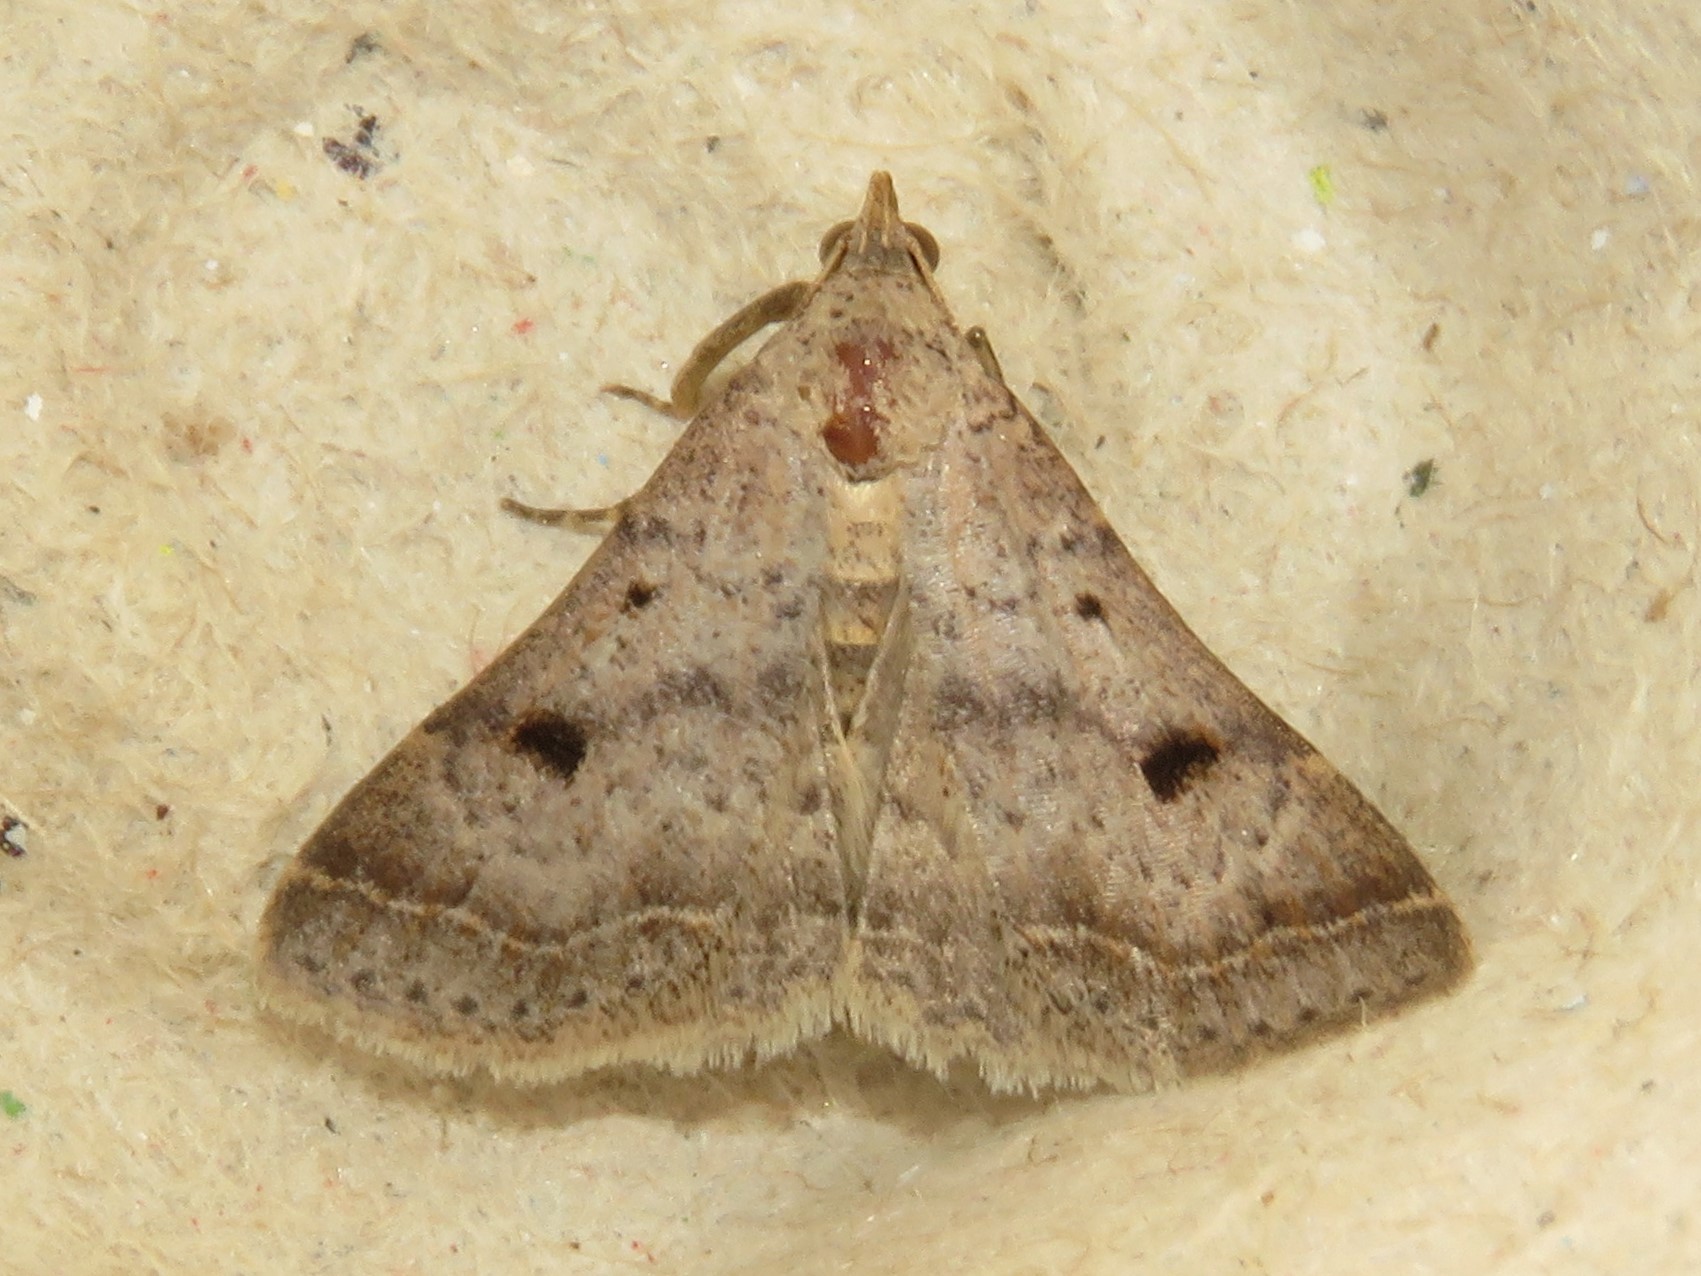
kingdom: Animalia
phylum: Arthropoda
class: Insecta
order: Lepidoptera
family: Erebidae
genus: Bleptina
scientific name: Bleptina caradrinalis
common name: Bent-winged owlet
